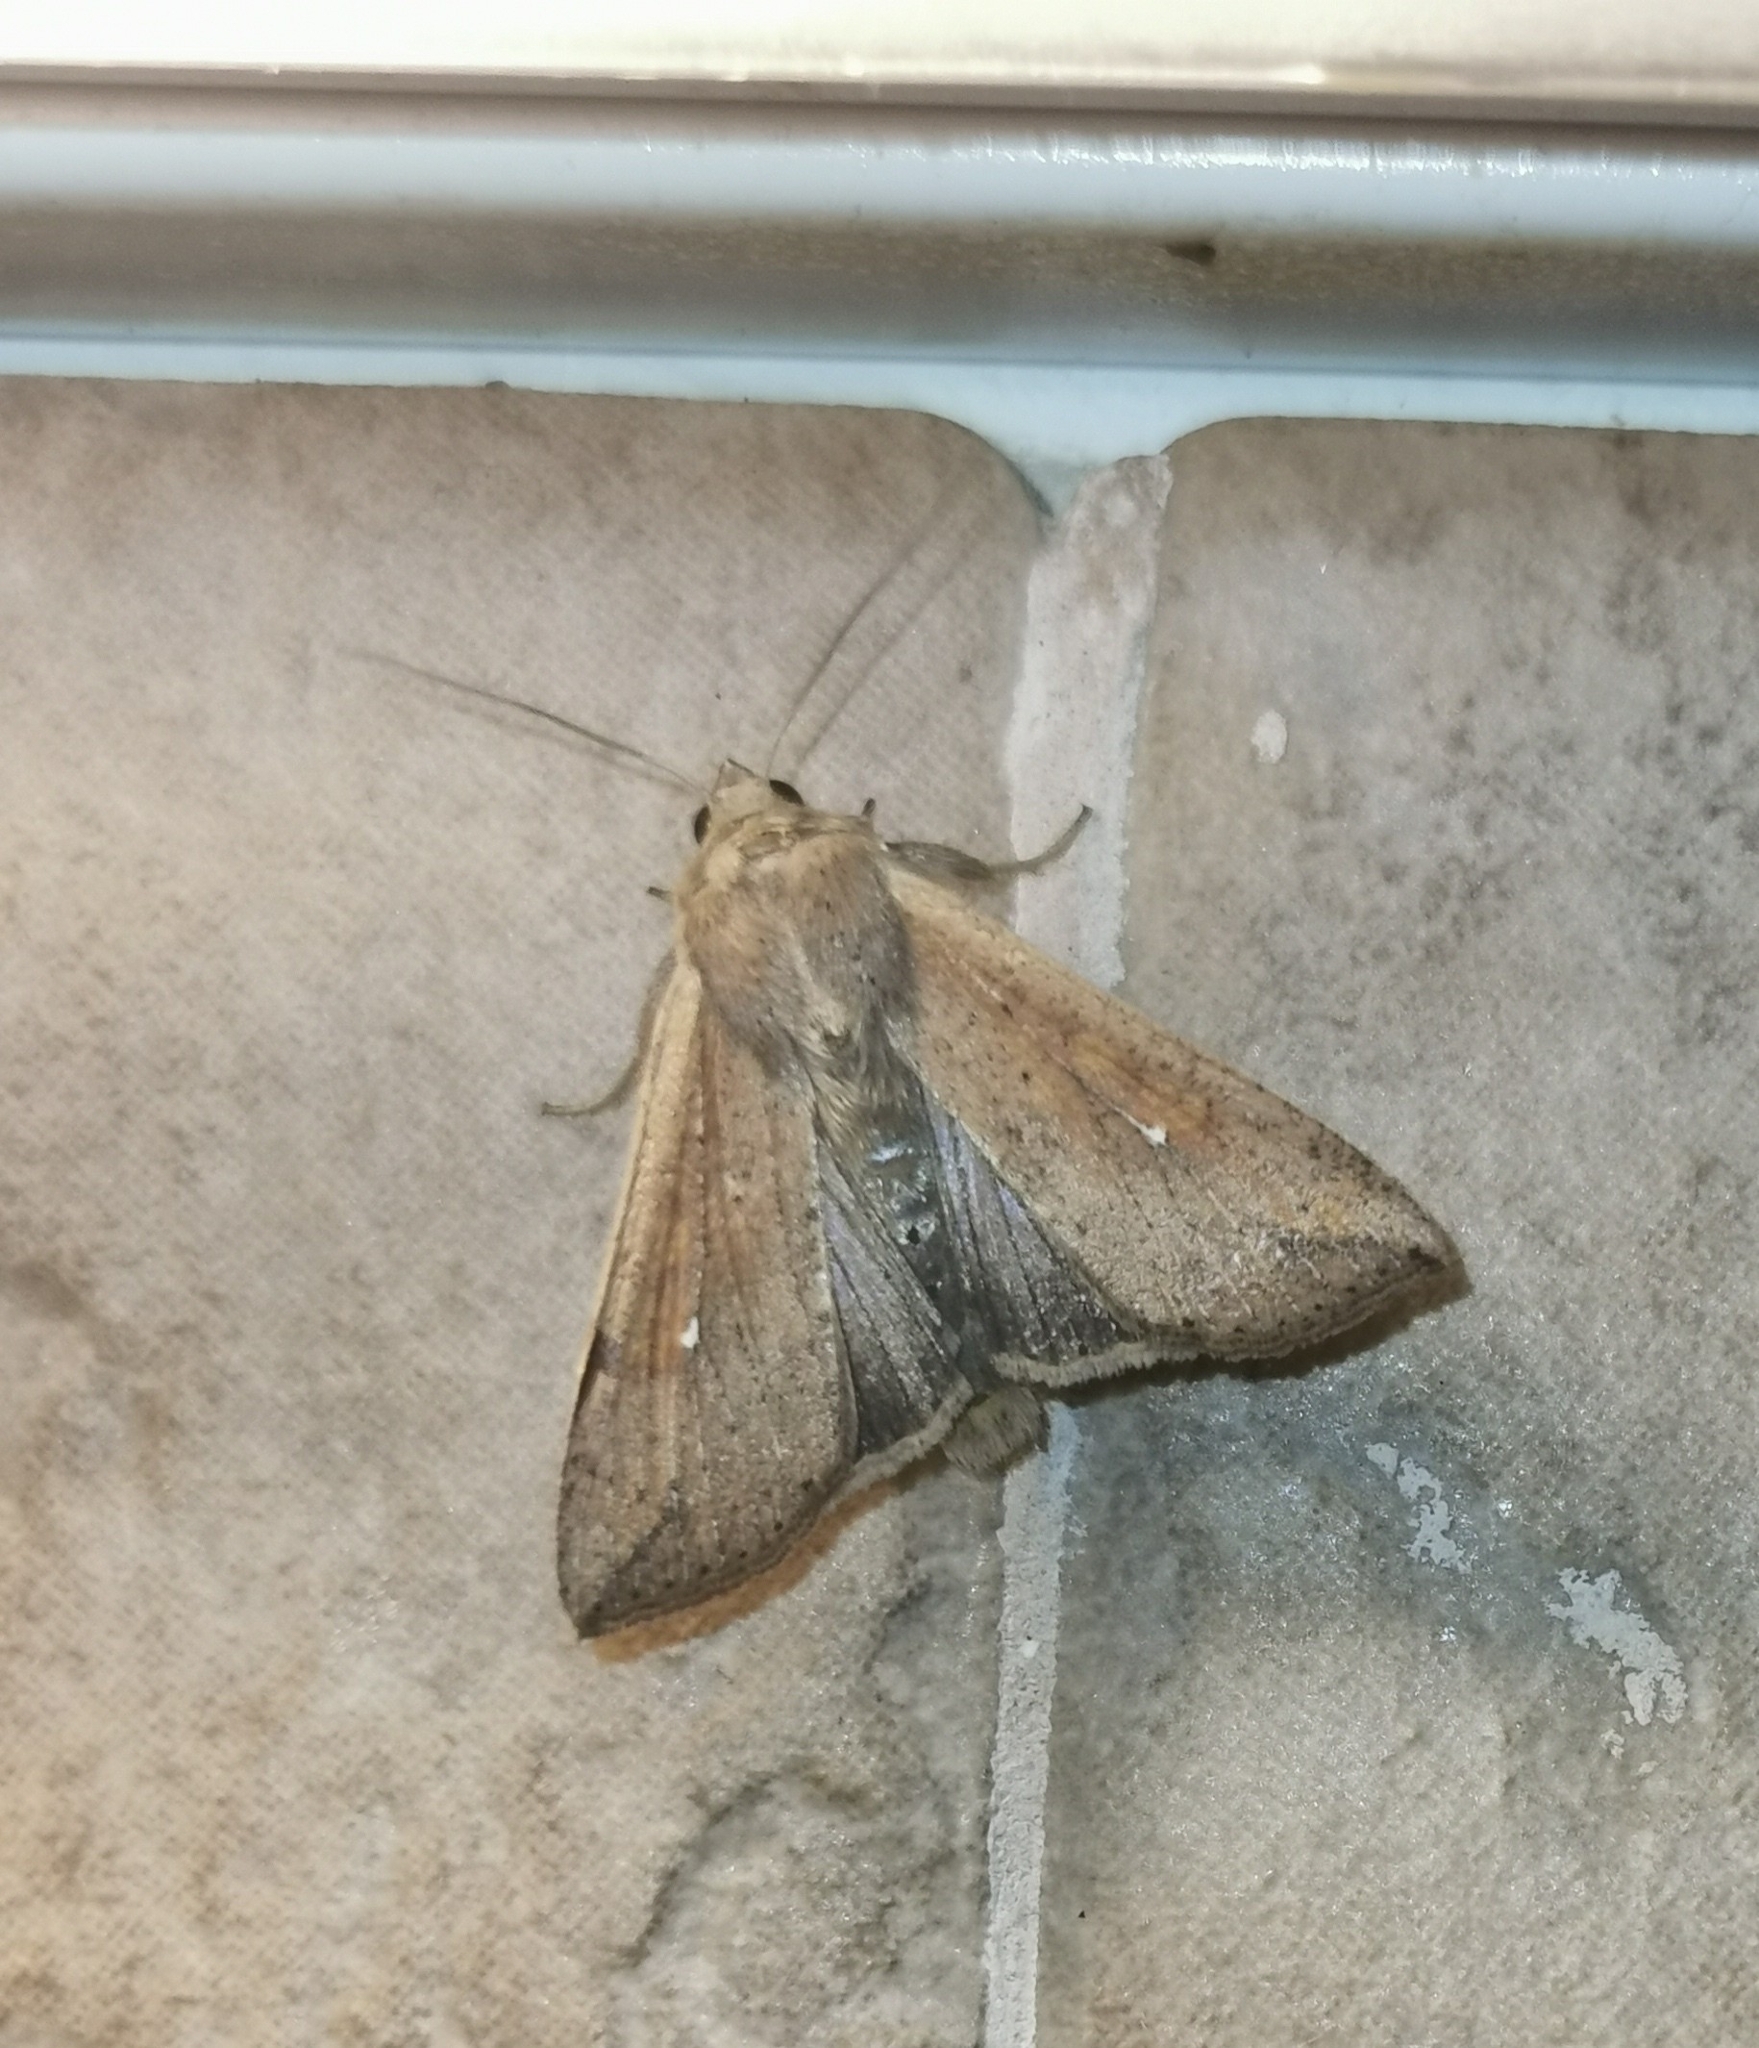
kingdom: Animalia
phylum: Arthropoda
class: Insecta
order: Lepidoptera
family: Noctuidae
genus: Mythimna
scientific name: Mythimna unipuncta
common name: White-speck
